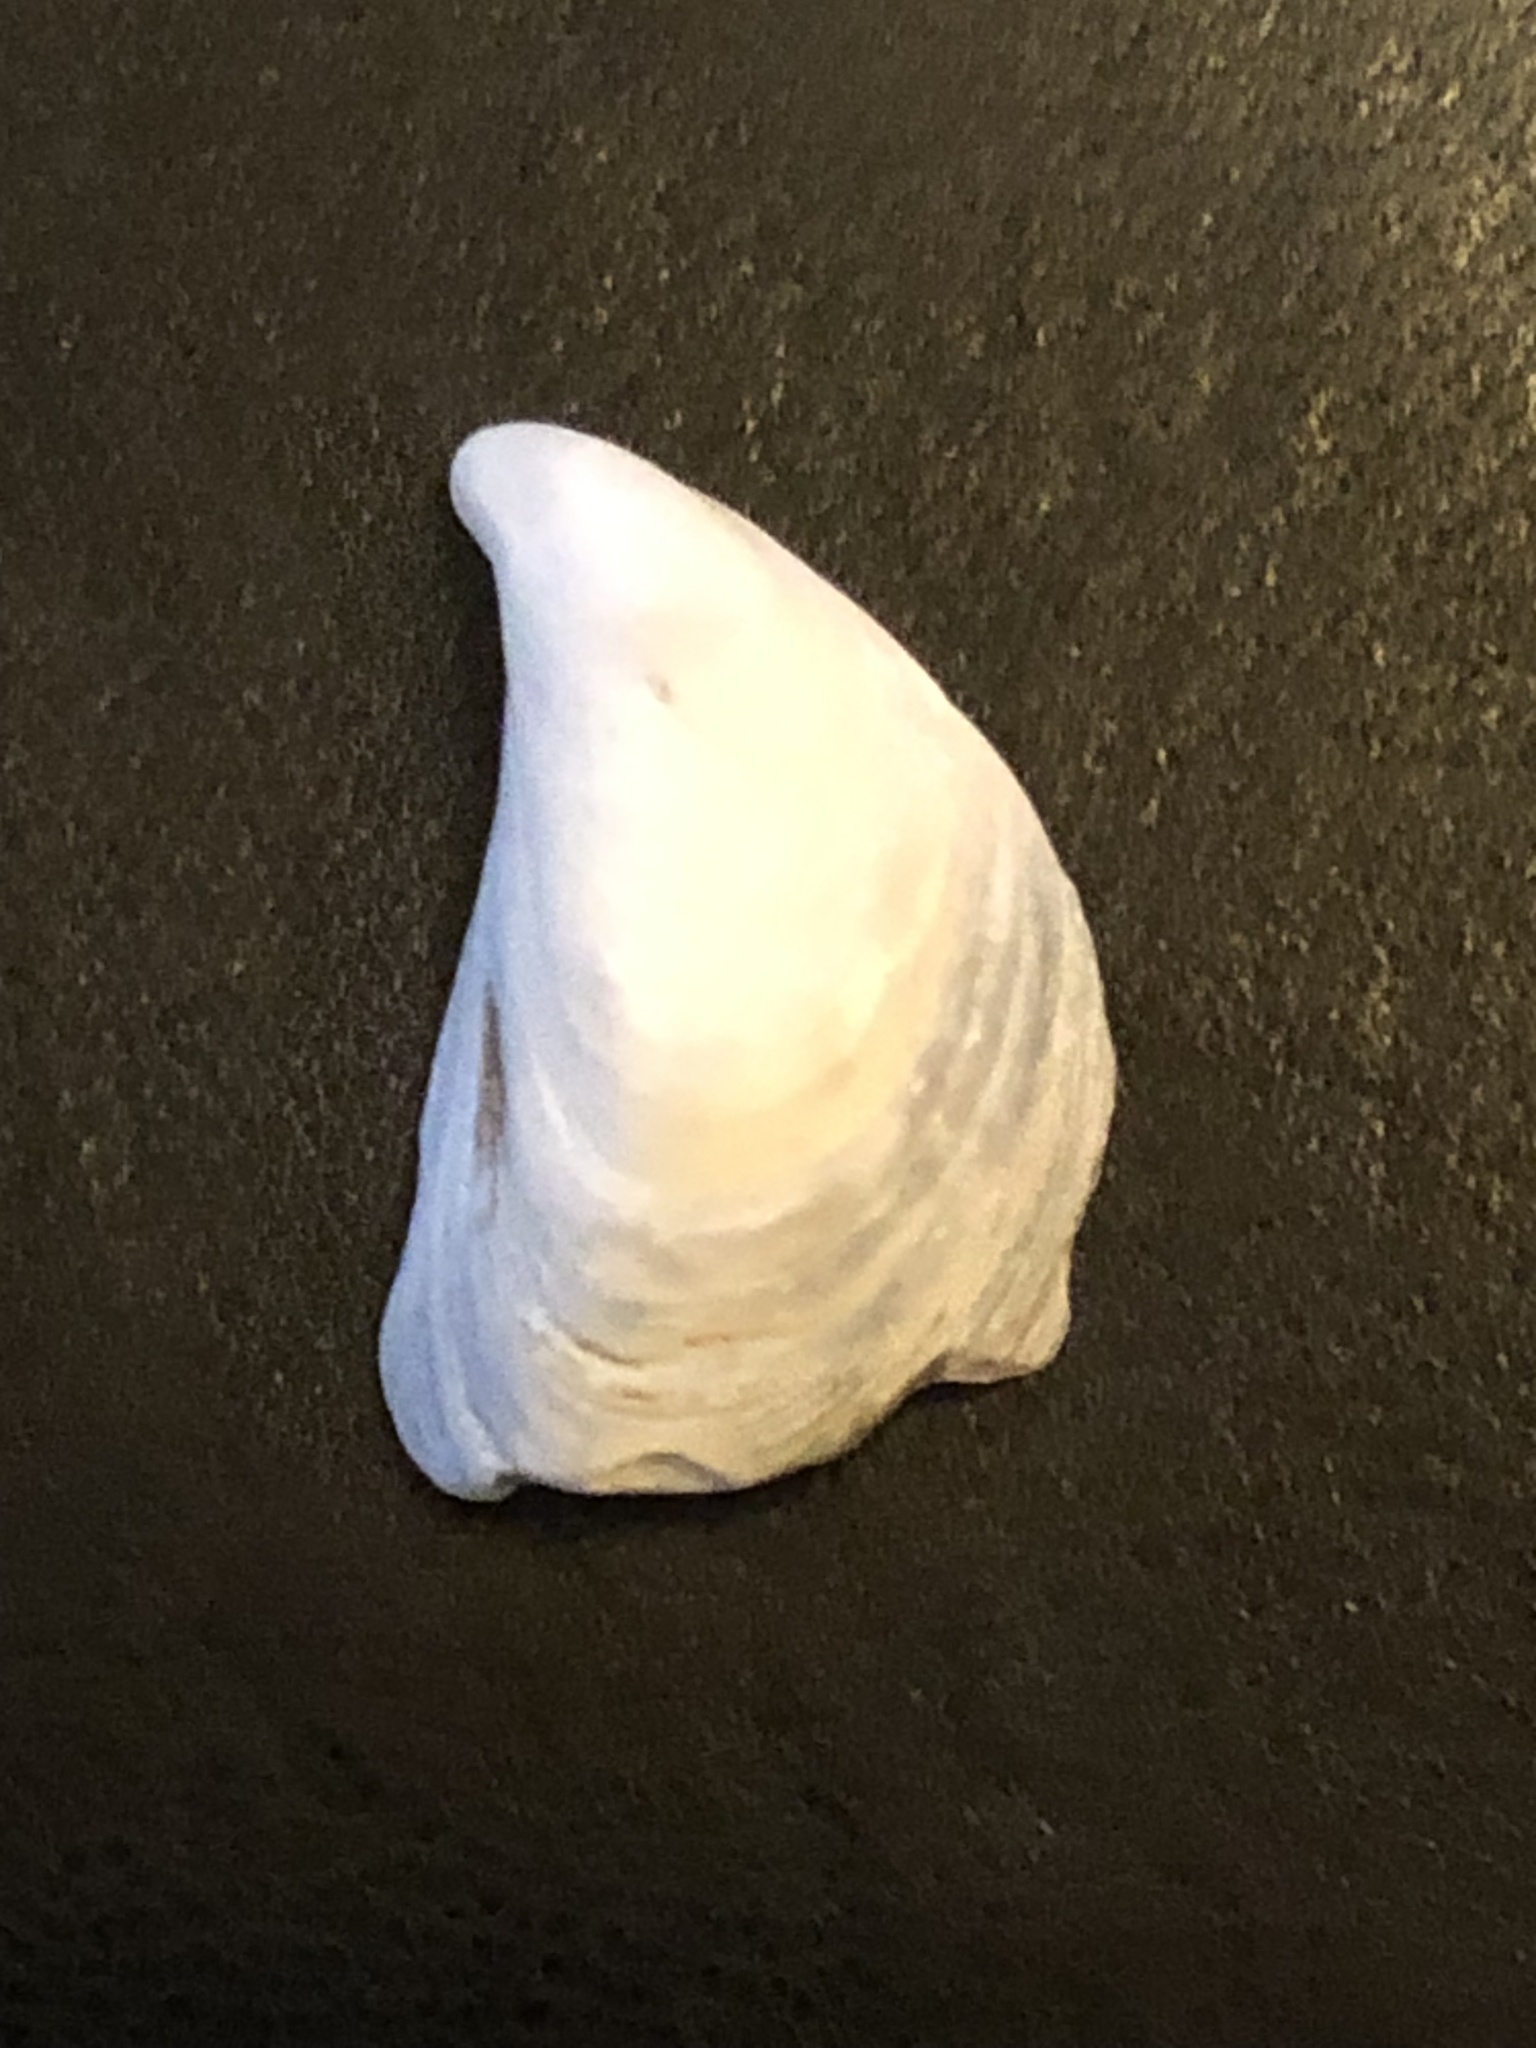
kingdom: Animalia
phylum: Mollusca
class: Bivalvia
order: Myida
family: Dreissenidae
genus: Dreissena
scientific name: Dreissena bugensis
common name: Quagga mussel
